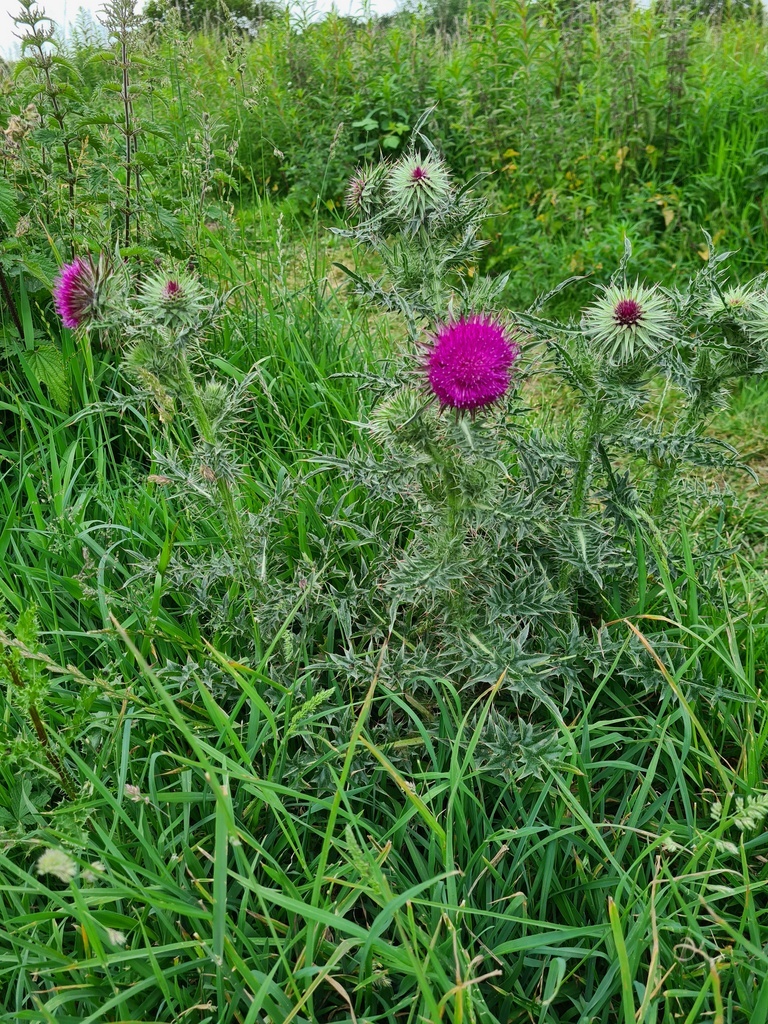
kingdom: Plantae
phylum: Tracheophyta
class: Magnoliopsida
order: Asterales
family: Asteraceae
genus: Carduus
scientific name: Carduus nutans
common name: Musk thistle
